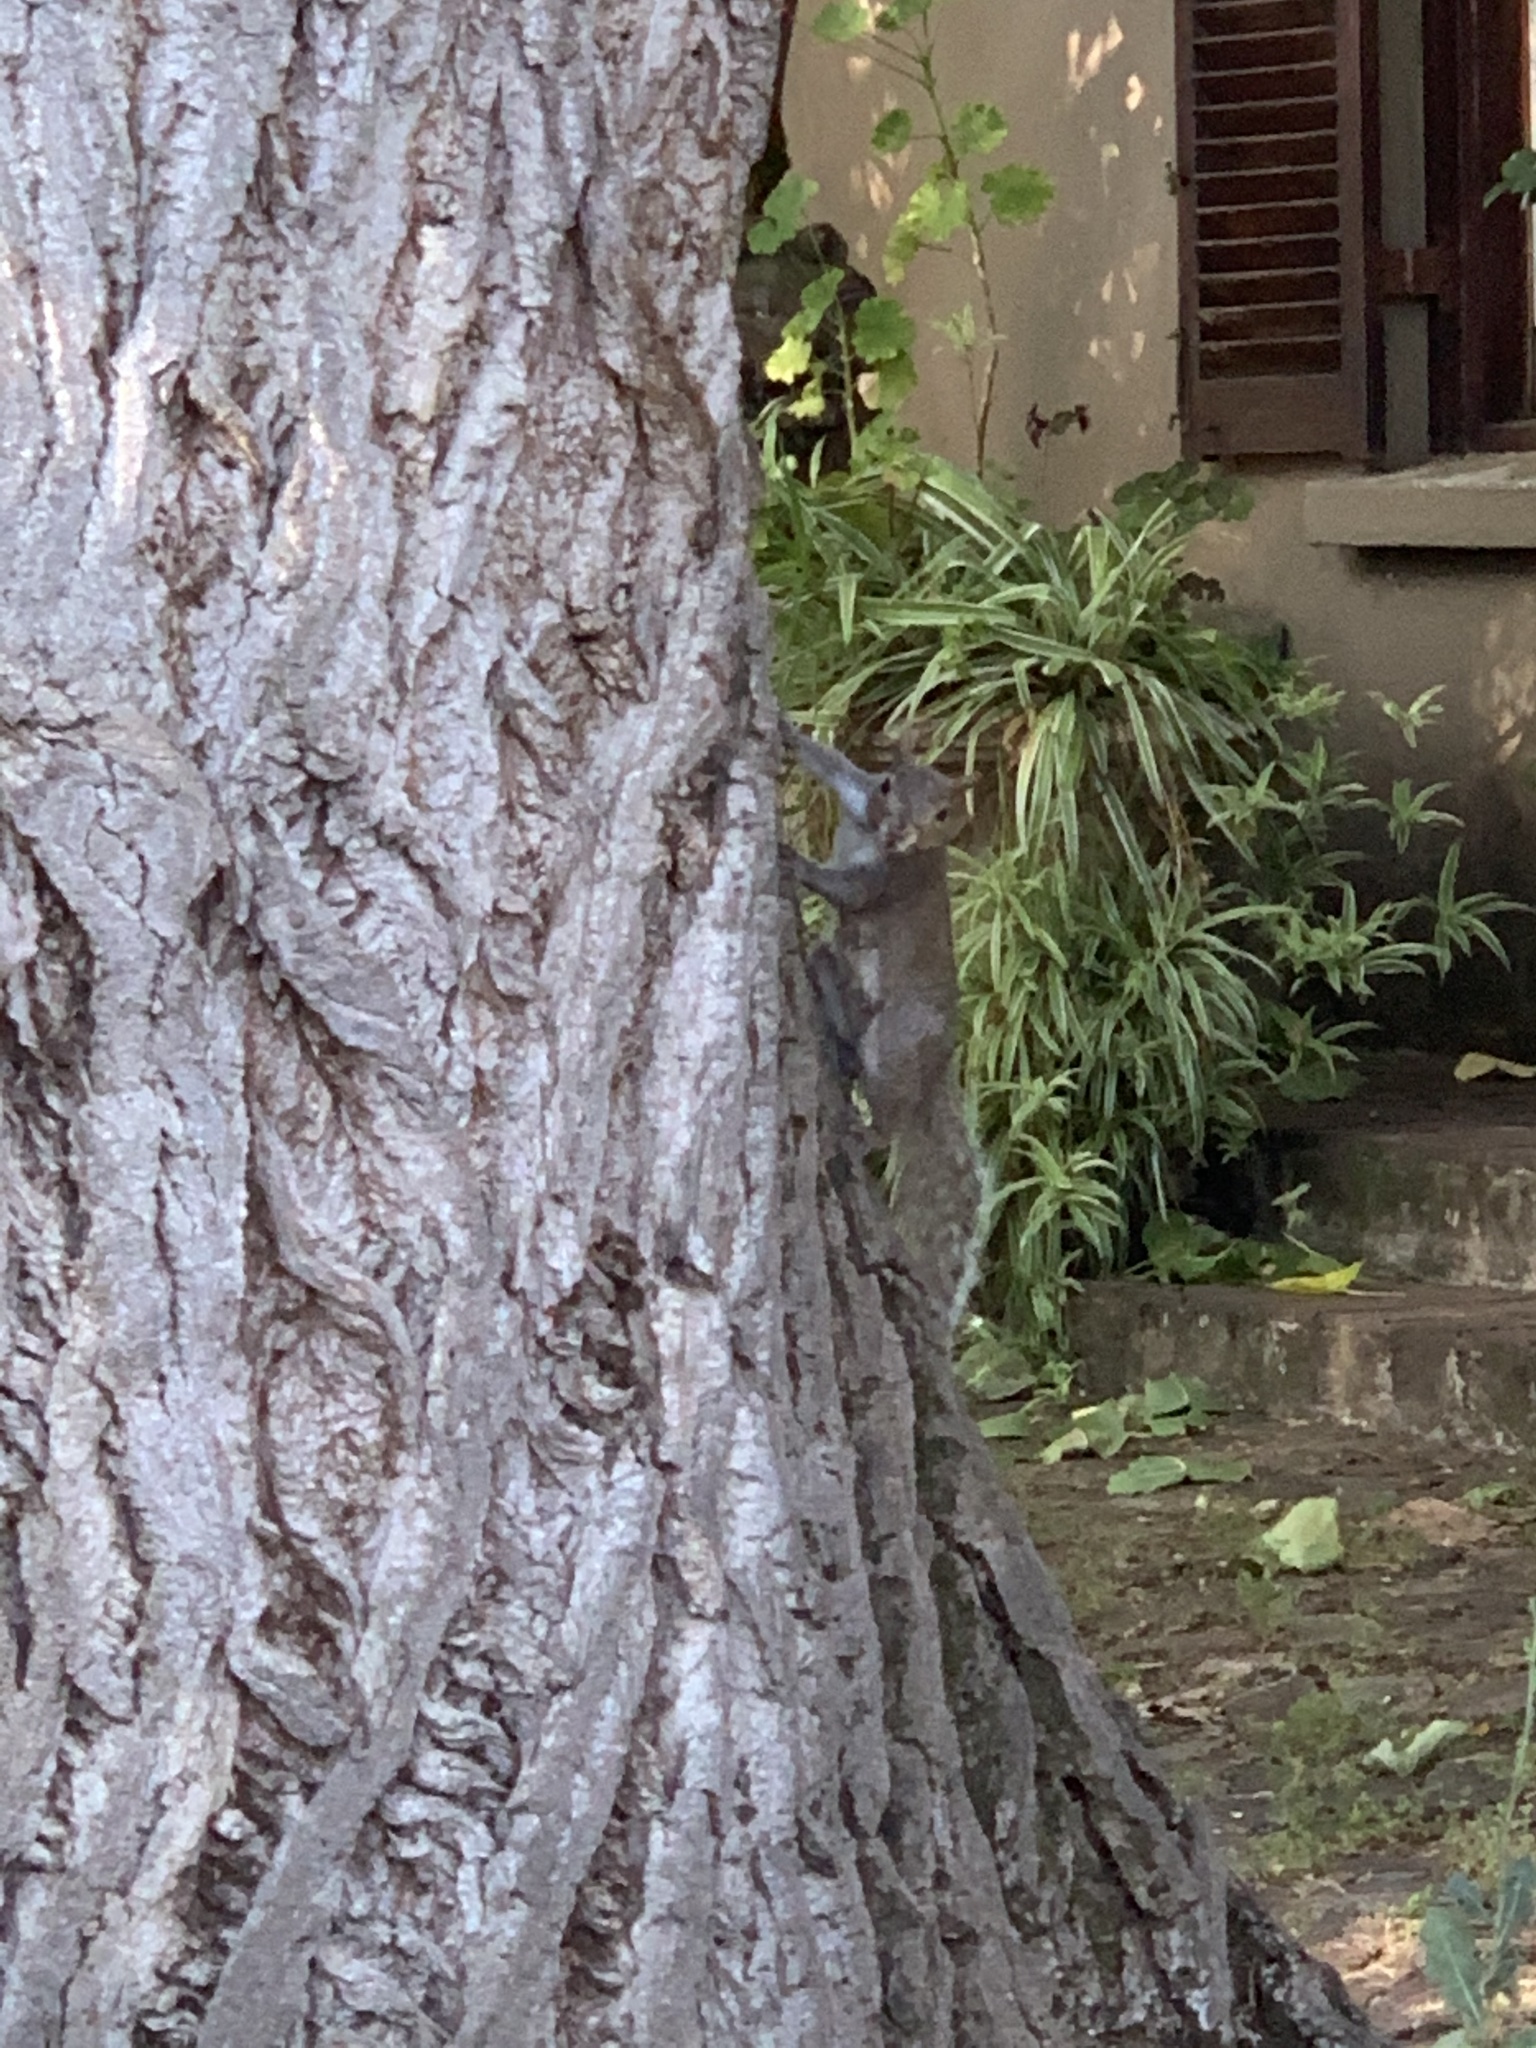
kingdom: Animalia
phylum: Chordata
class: Mammalia
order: Rodentia
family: Sciuridae
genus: Sciurus
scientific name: Sciurus carolinensis
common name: Eastern gray squirrel
